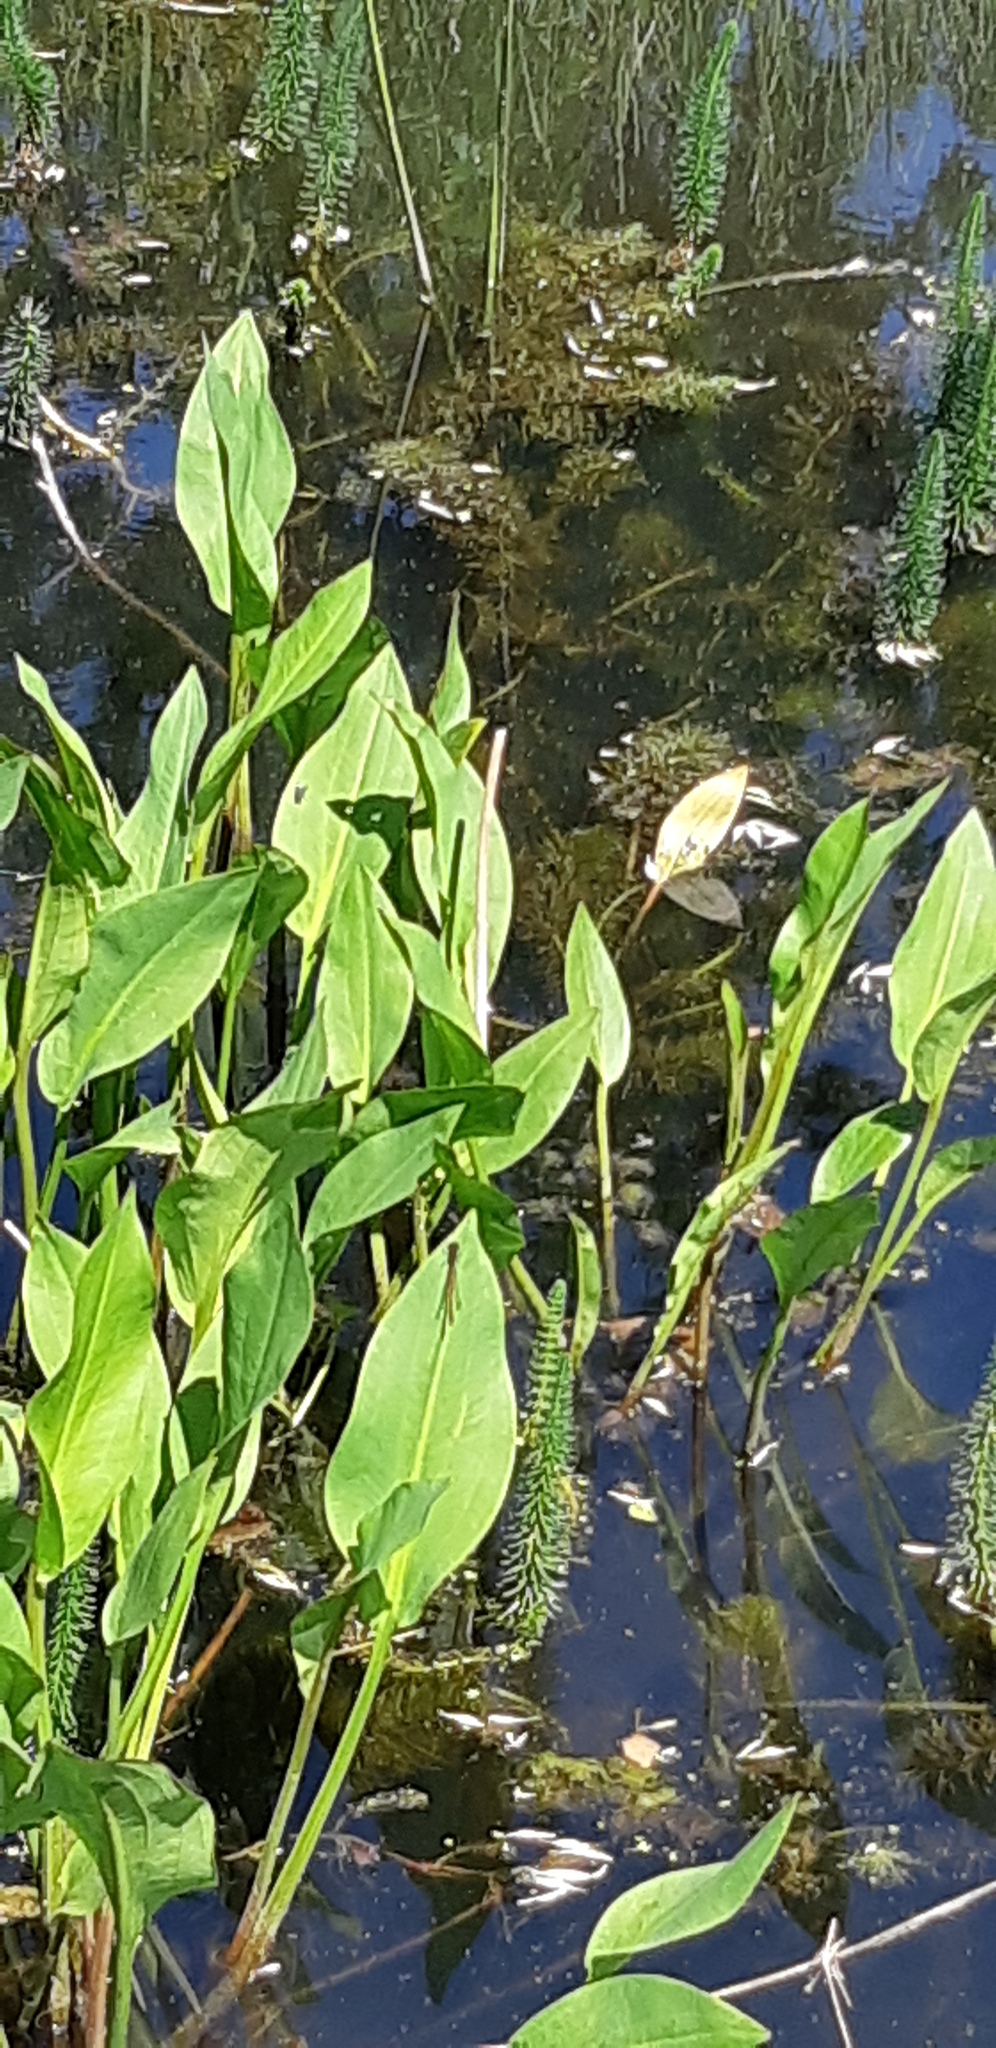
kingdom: Animalia
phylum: Arthropoda
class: Insecta
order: Odonata
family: Coenagrionidae
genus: Pyrrhosoma
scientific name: Pyrrhosoma nymphula
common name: Large red damsel
